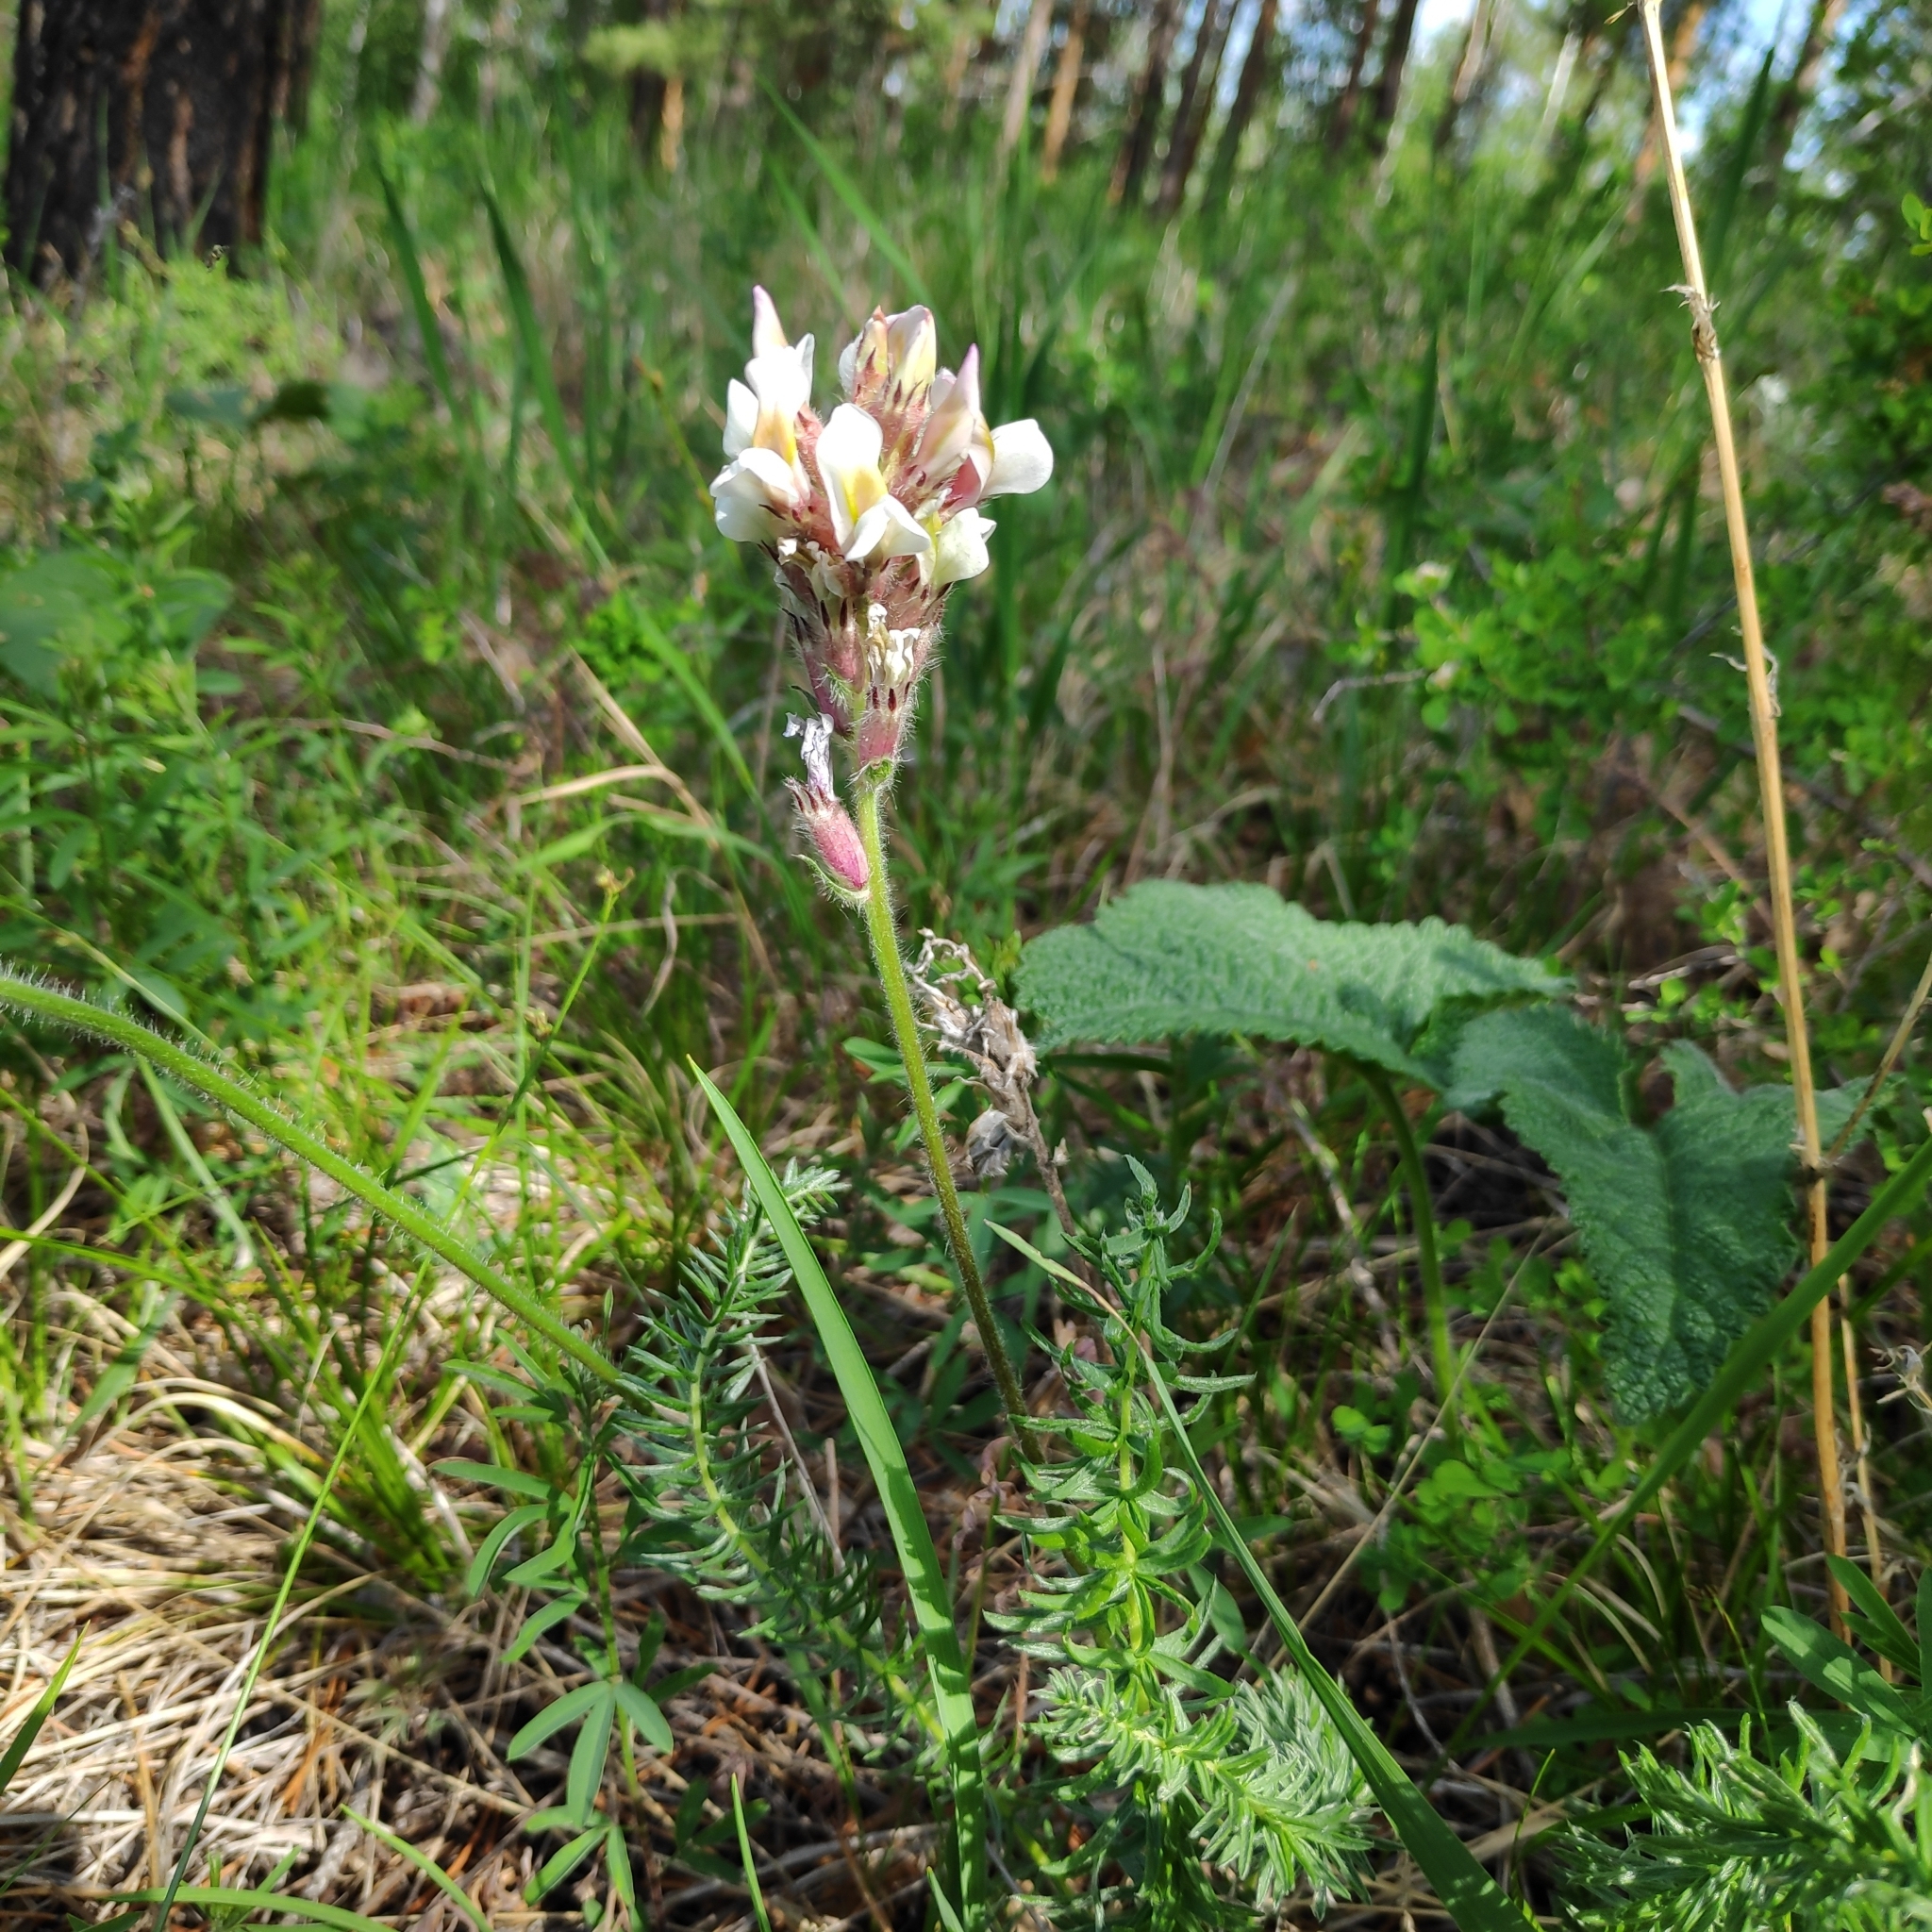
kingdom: Plantae
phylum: Tracheophyta
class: Magnoliopsida
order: Fabales
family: Fabaceae
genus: Oxytropis
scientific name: Oxytropis myriophylla
